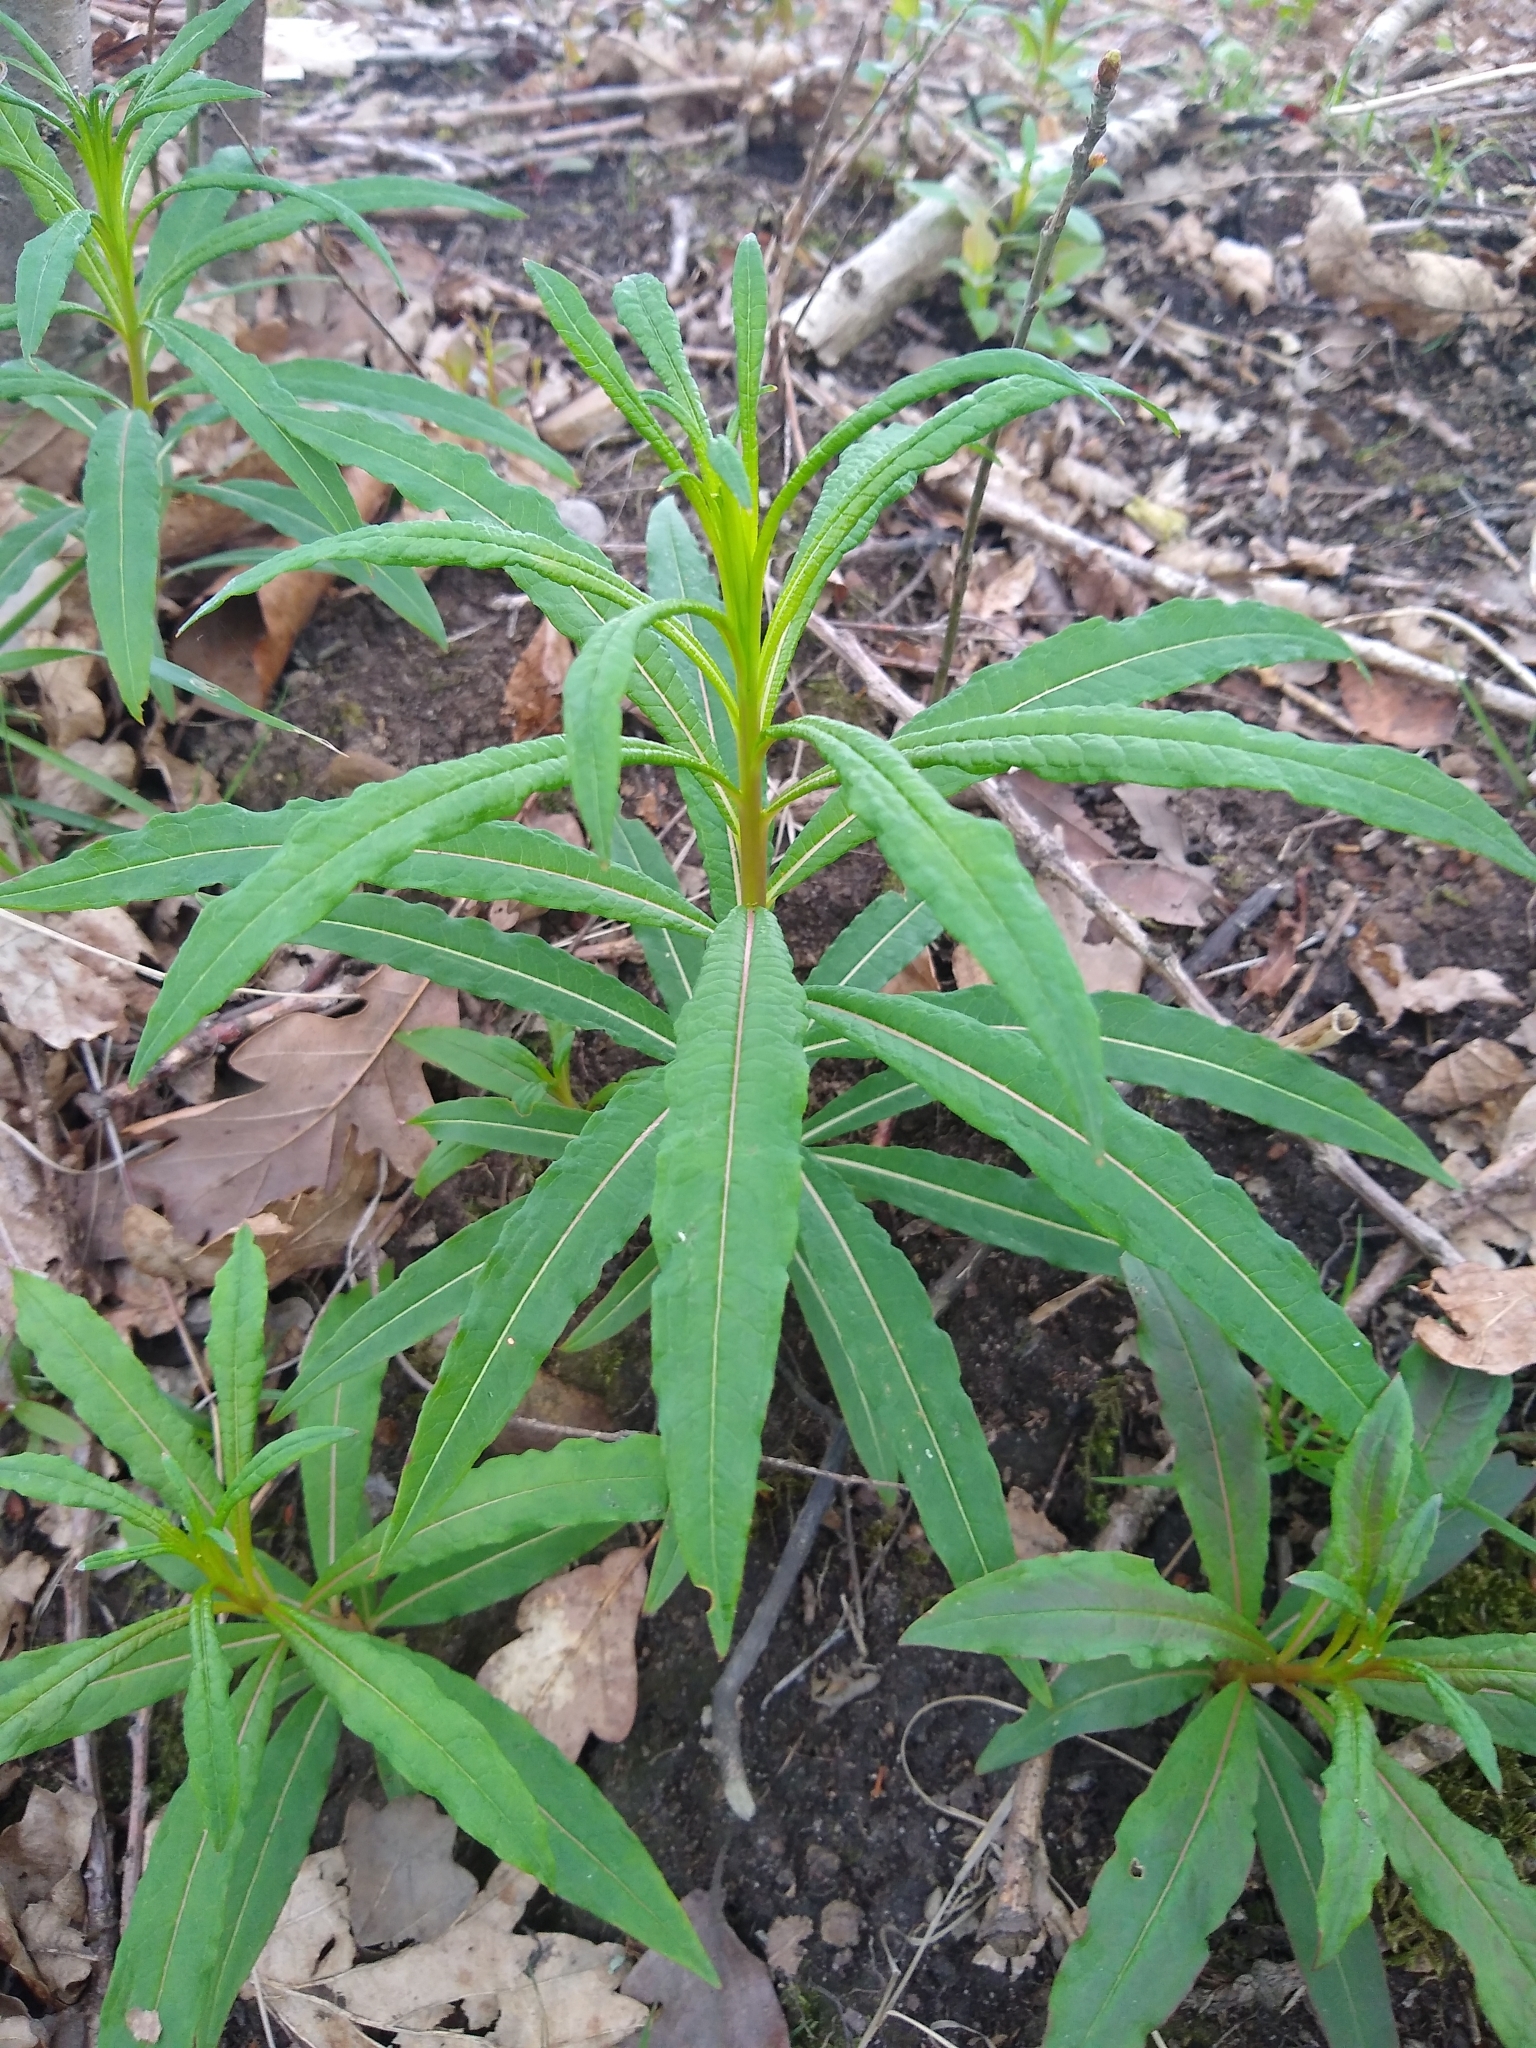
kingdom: Plantae
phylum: Tracheophyta
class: Magnoliopsida
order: Myrtales
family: Onagraceae
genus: Chamaenerion
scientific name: Chamaenerion angustifolium
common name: Fireweed
